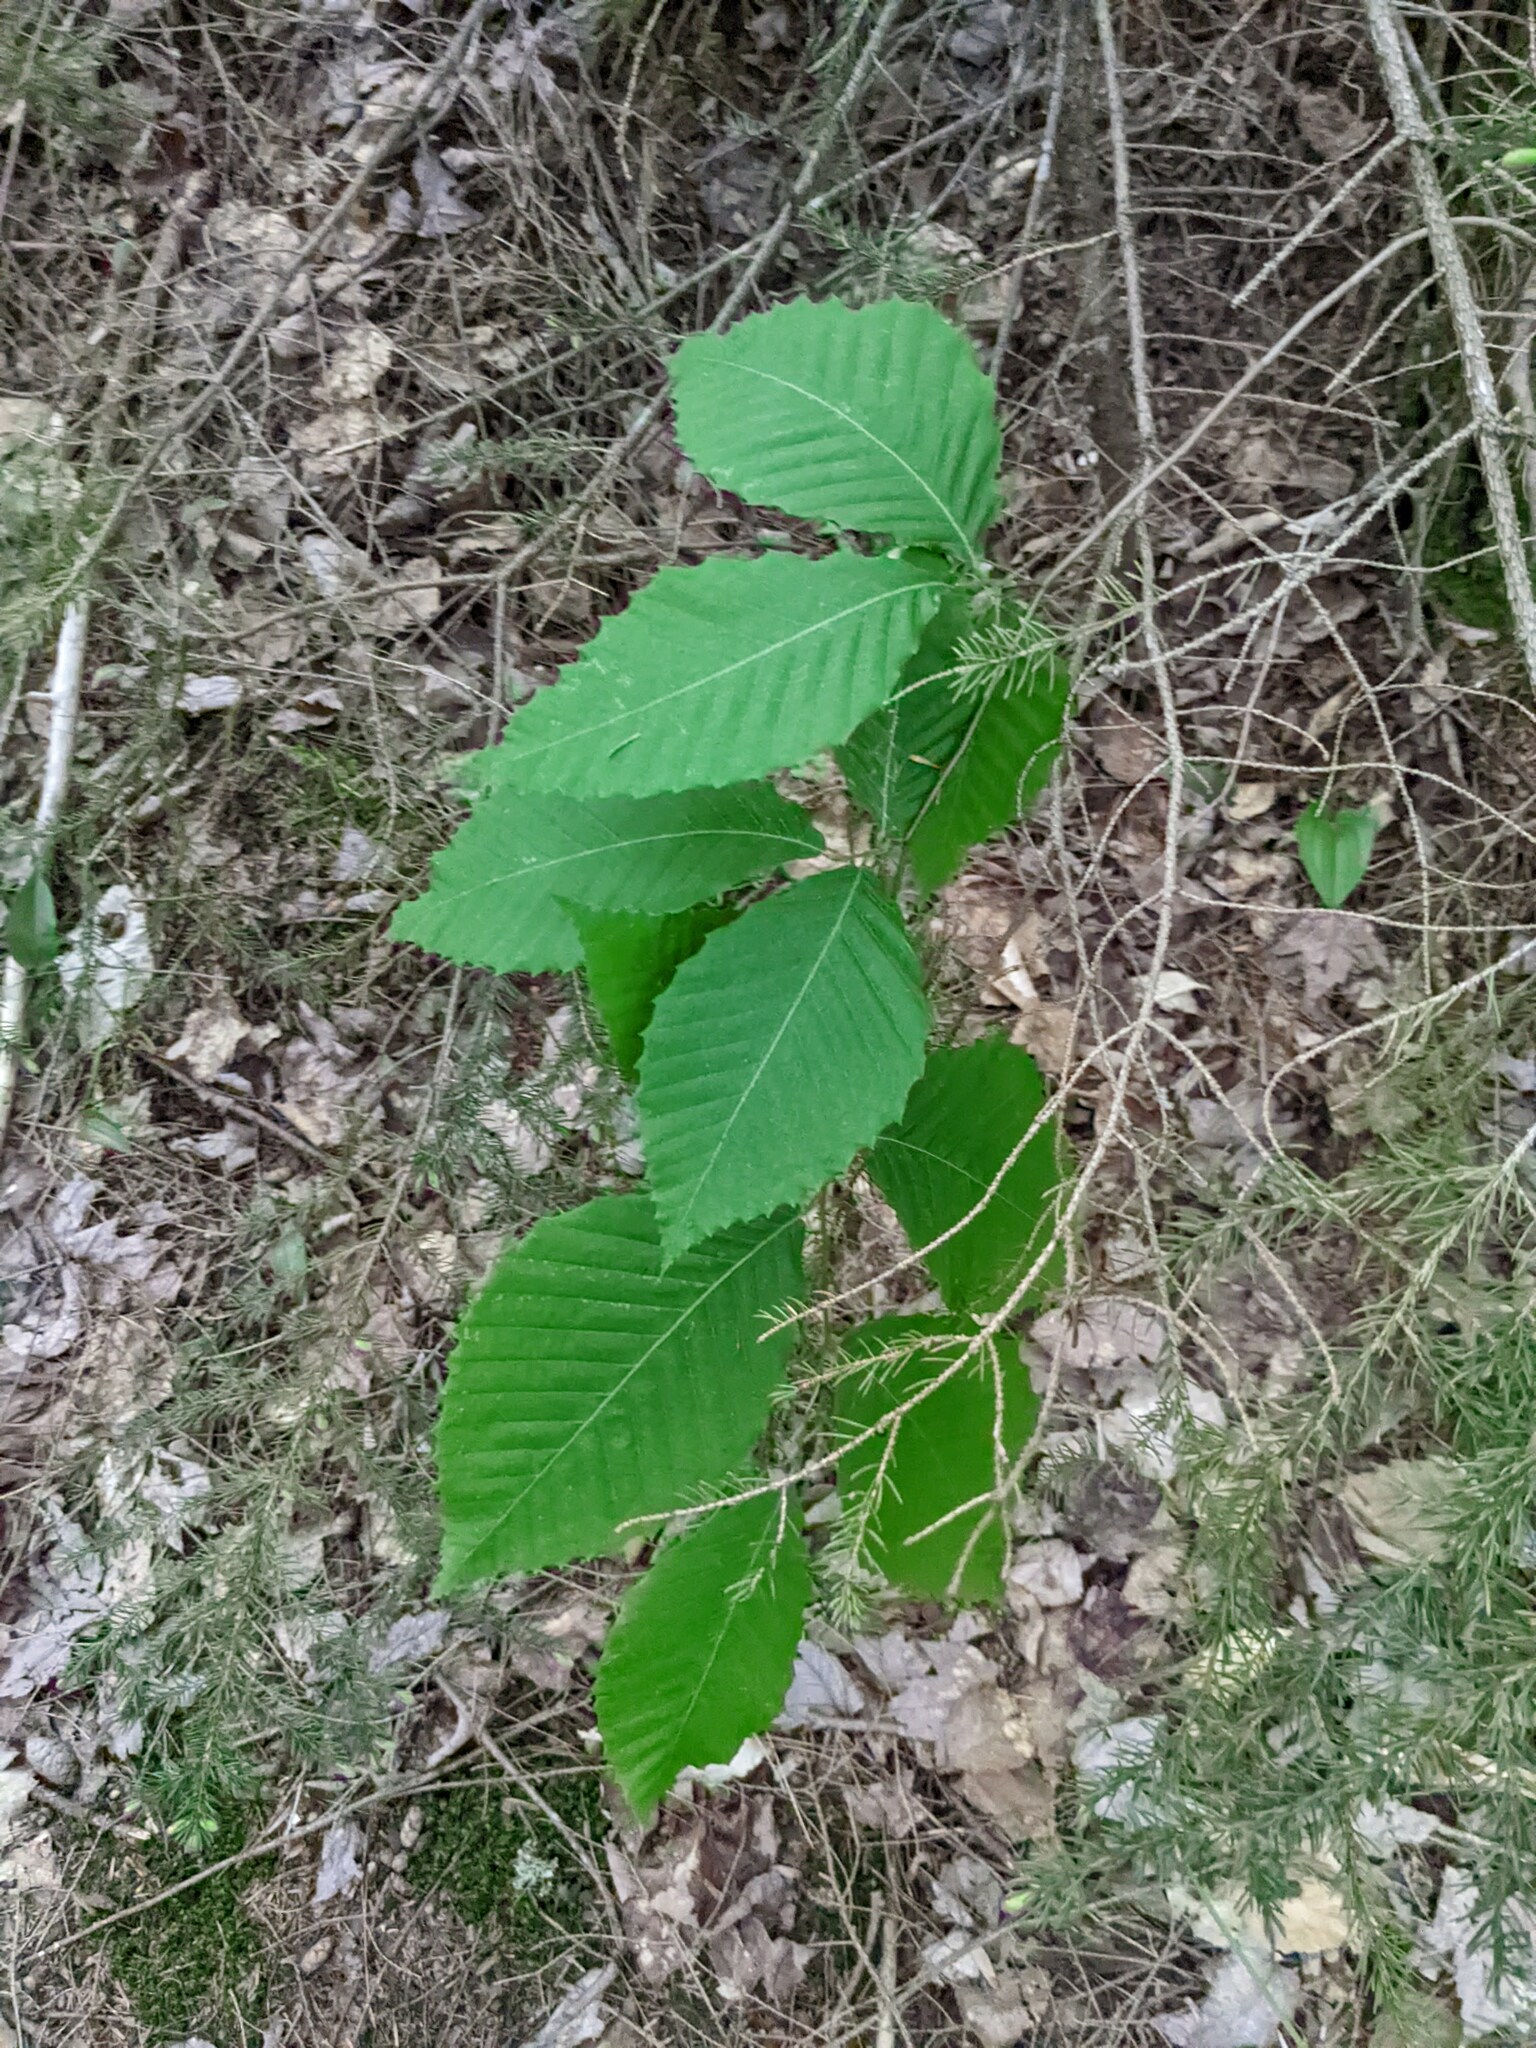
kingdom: Plantae
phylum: Tracheophyta
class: Magnoliopsida
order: Fagales
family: Fagaceae
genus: Fagus
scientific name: Fagus grandifolia
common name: American beech
